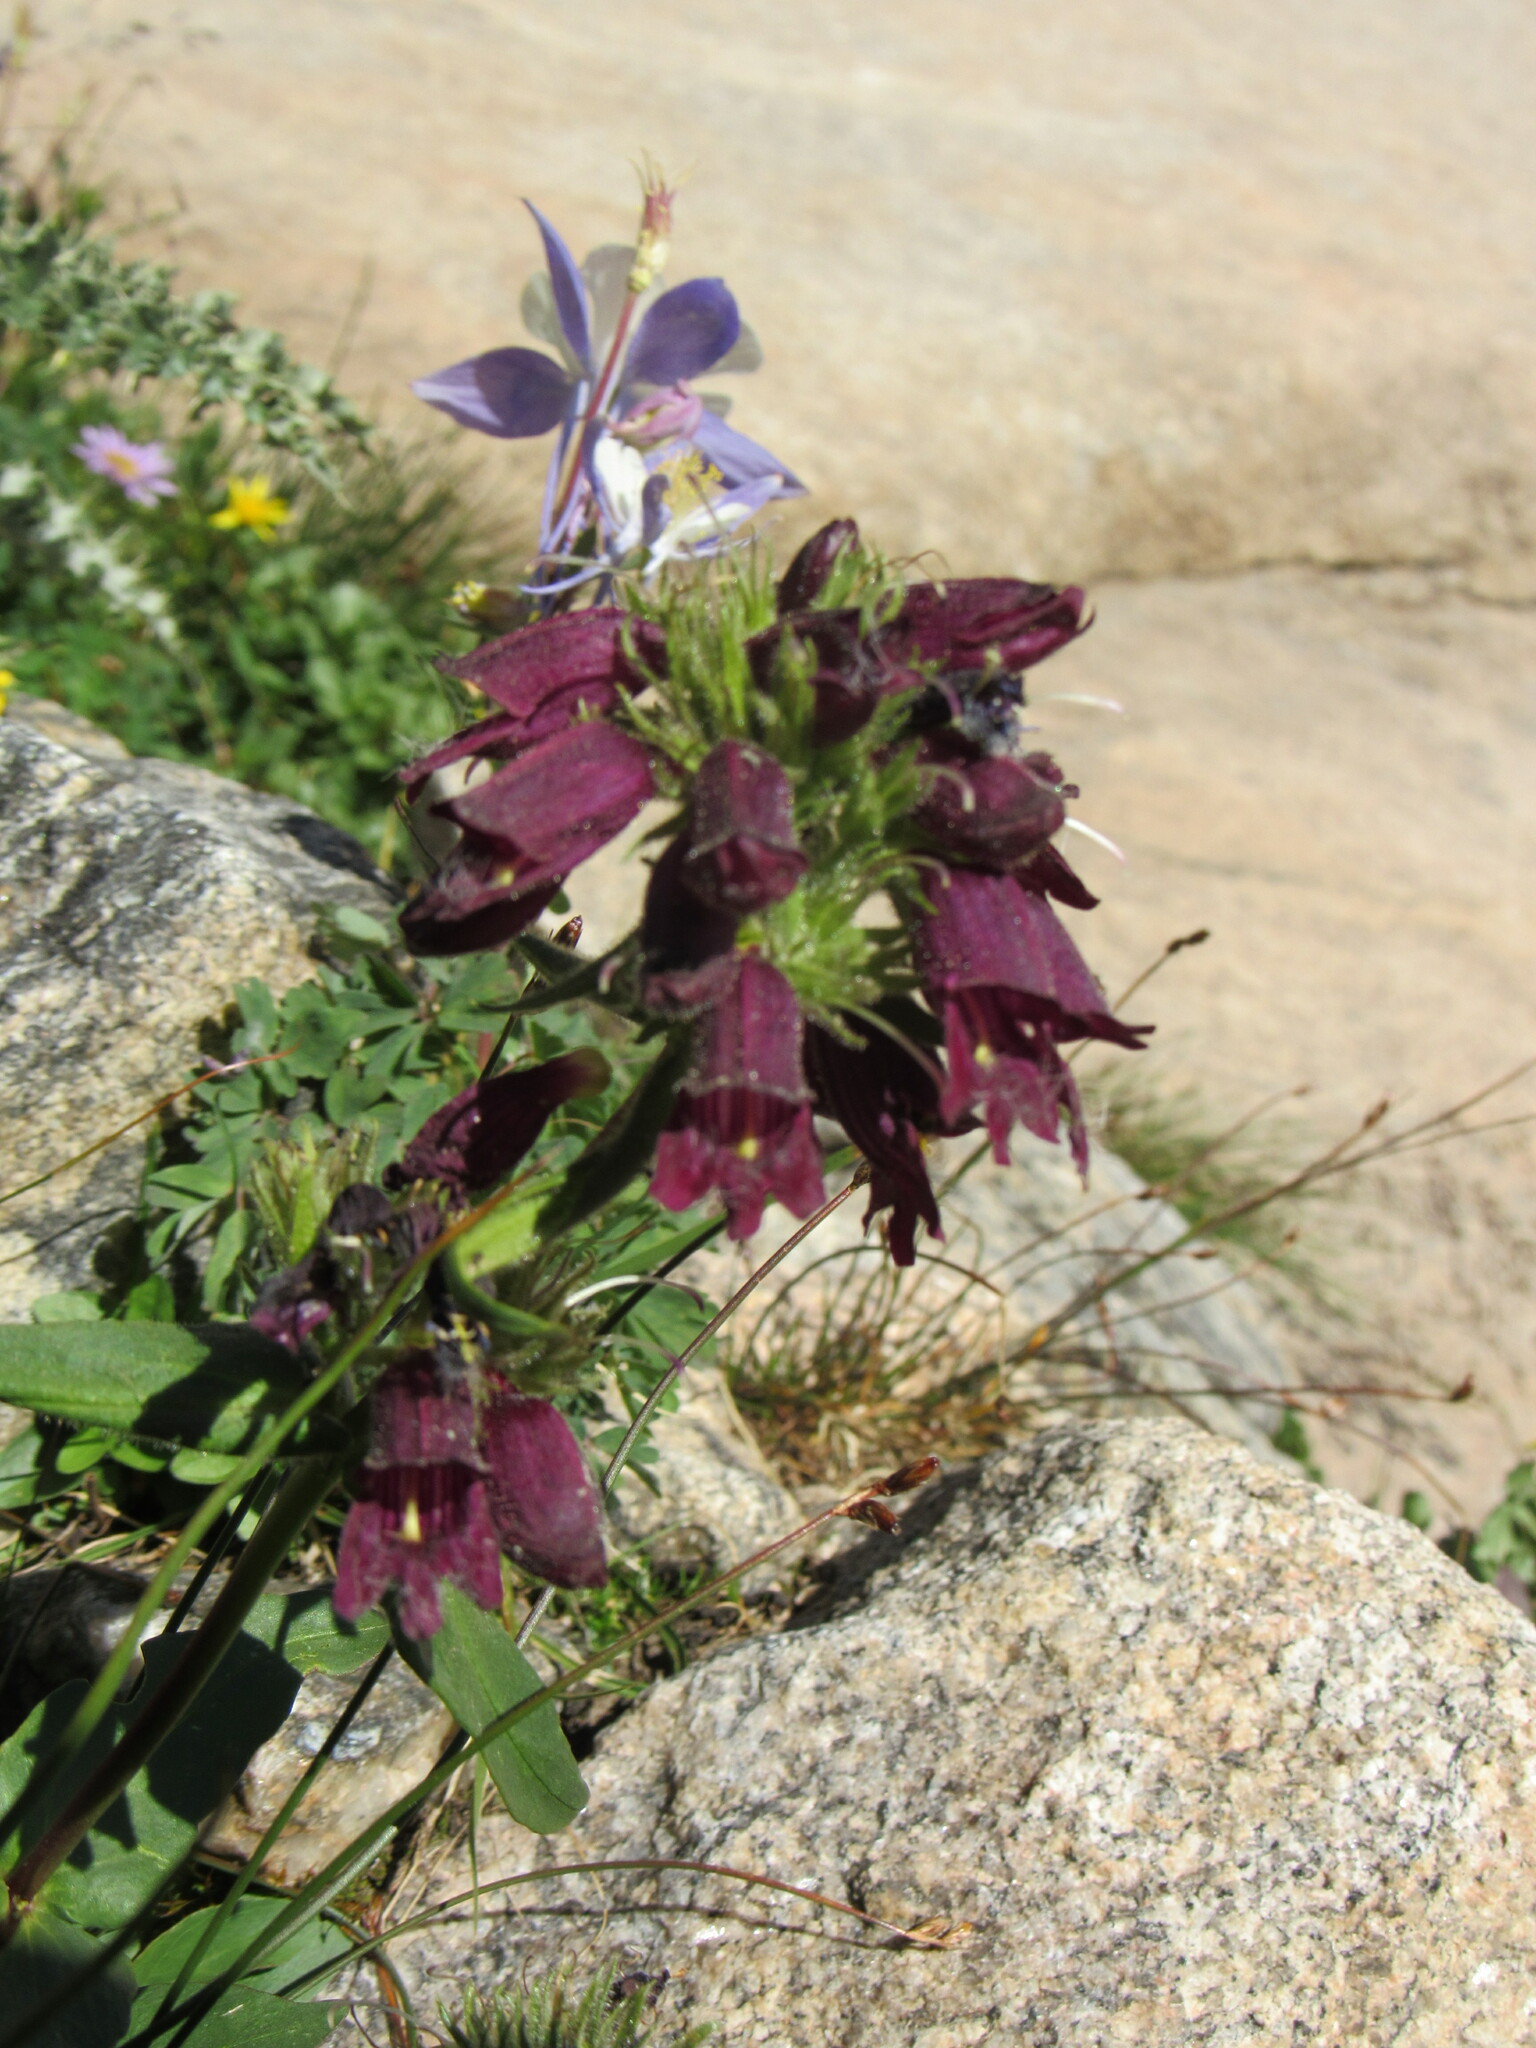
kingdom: Plantae
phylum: Tracheophyta
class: Magnoliopsida
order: Lamiales
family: Plantaginaceae
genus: Penstemon
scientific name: Penstemon whippleanus
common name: Whipple's penstemon
